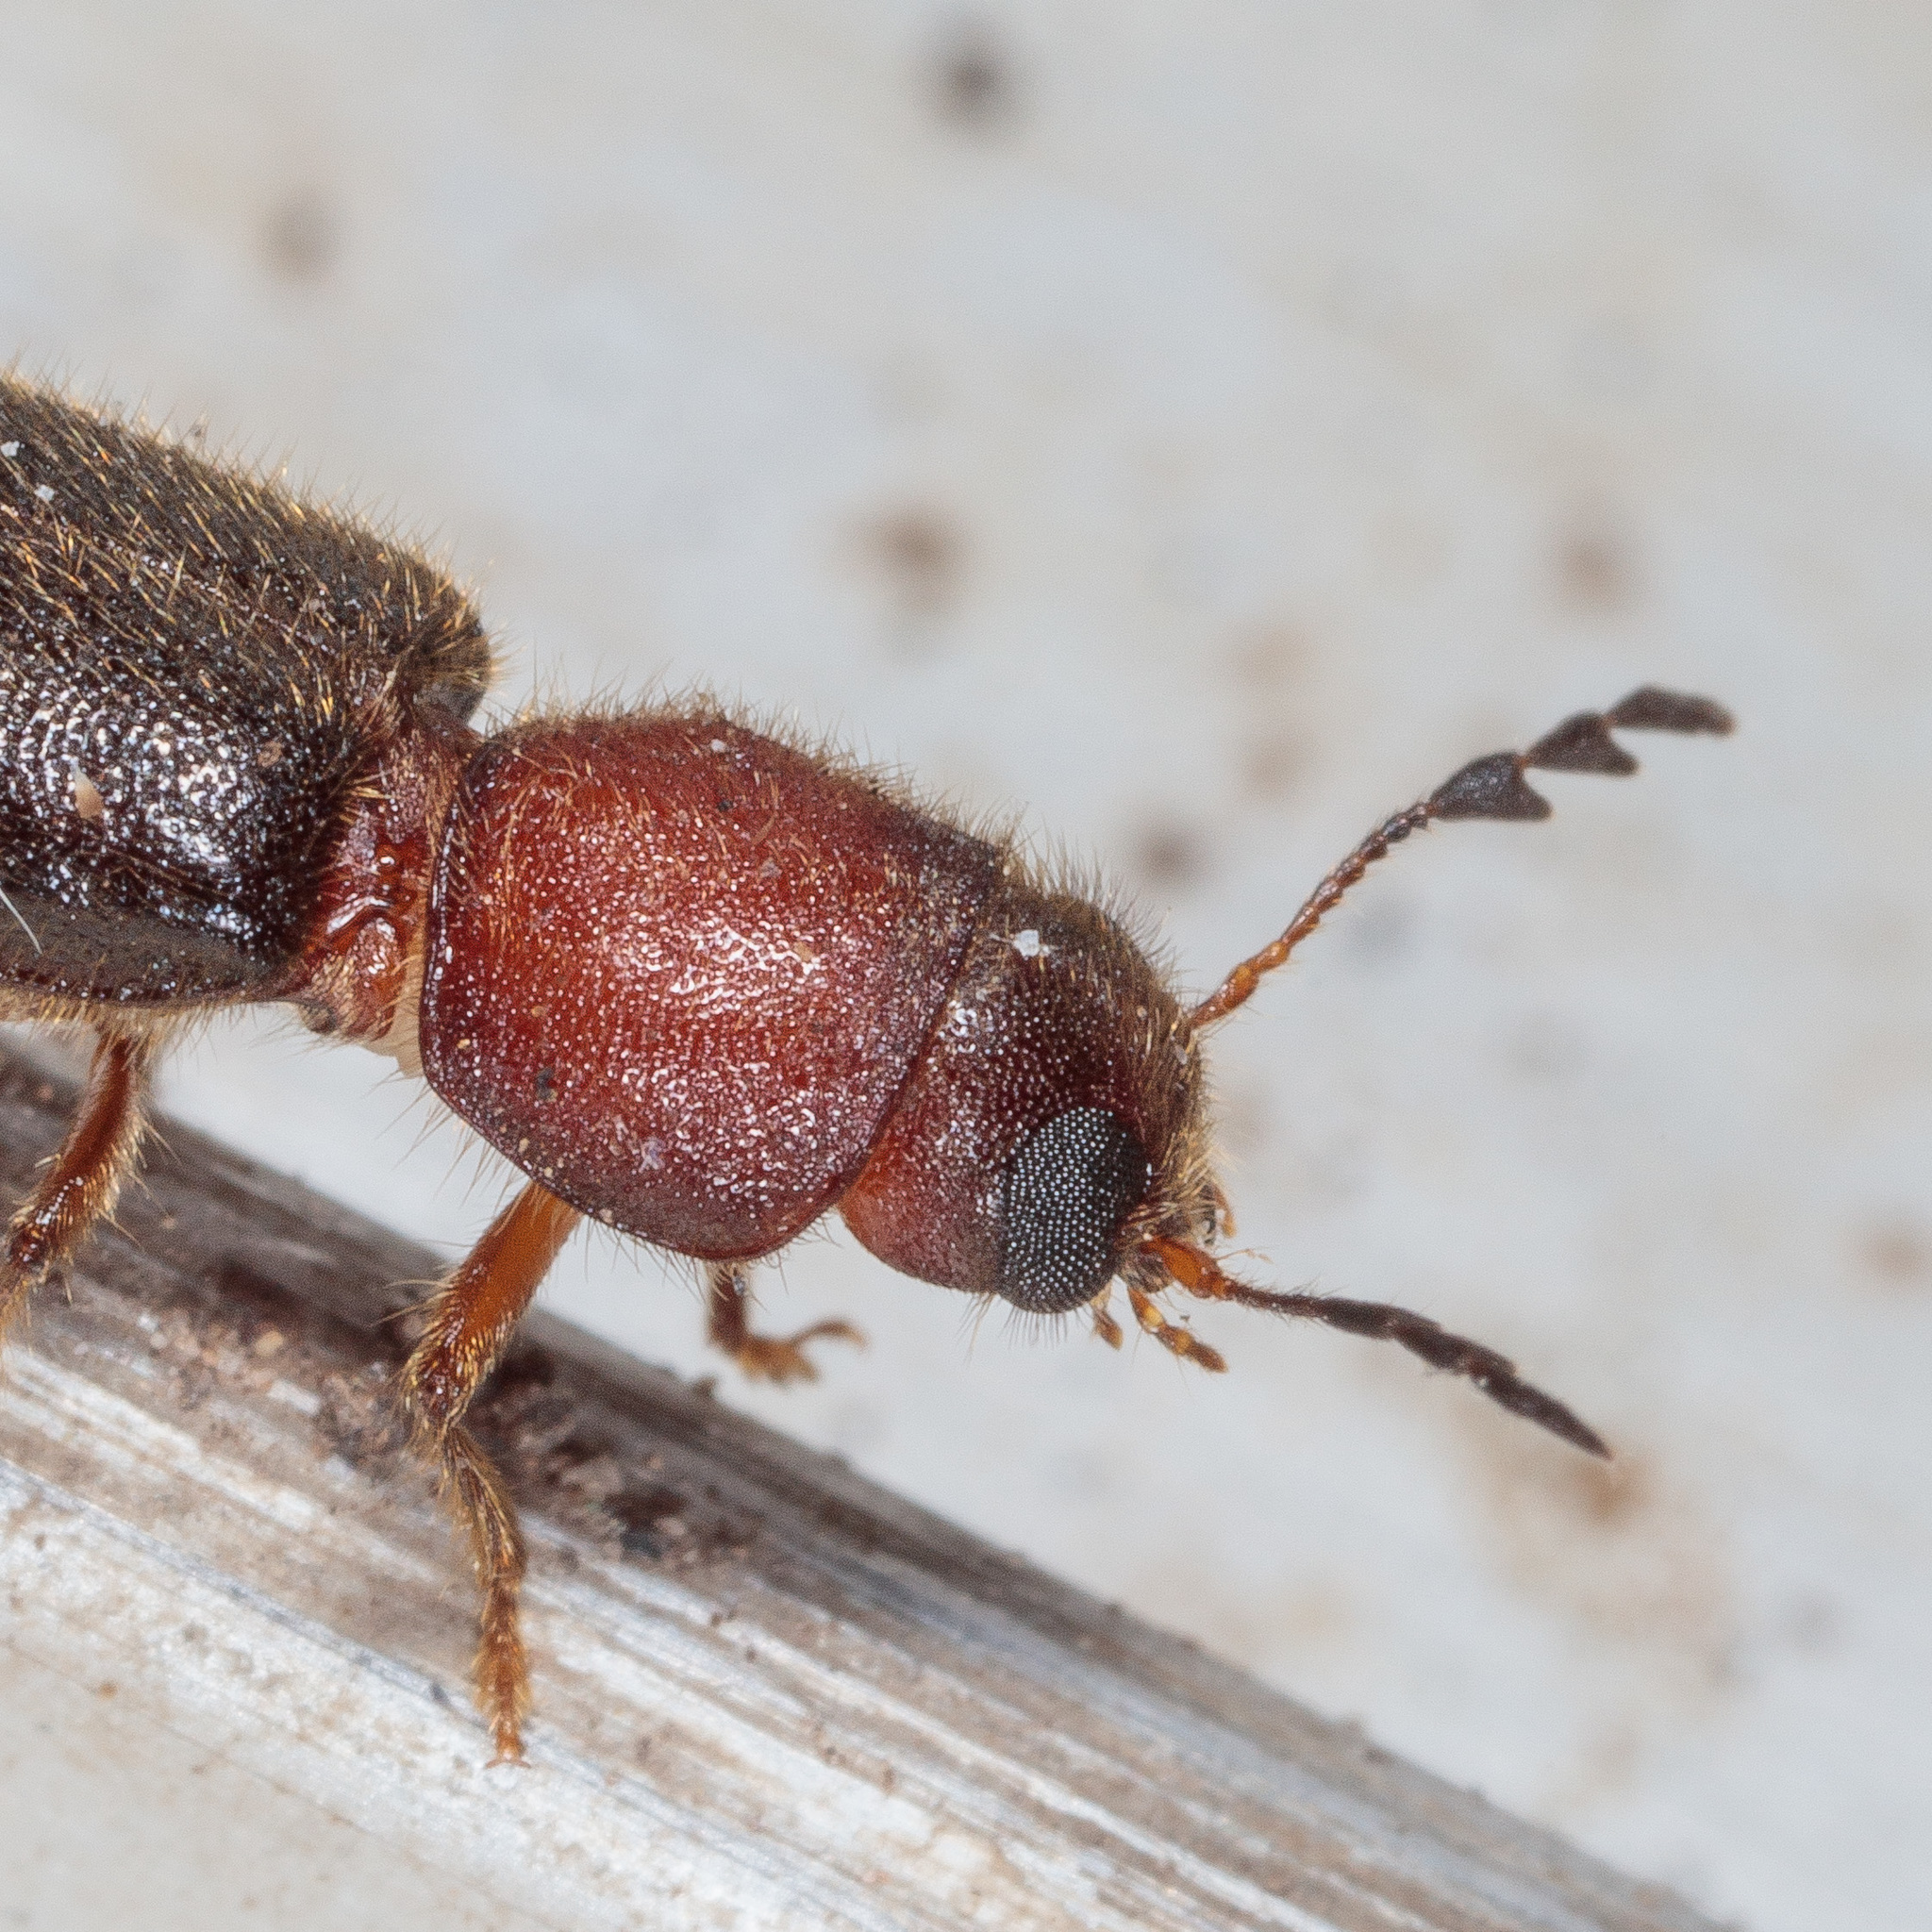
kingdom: Animalia
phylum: Arthropoda
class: Insecta
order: Coleoptera
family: Cleridae
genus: Neorthopleura
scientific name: Neorthopleura texana
